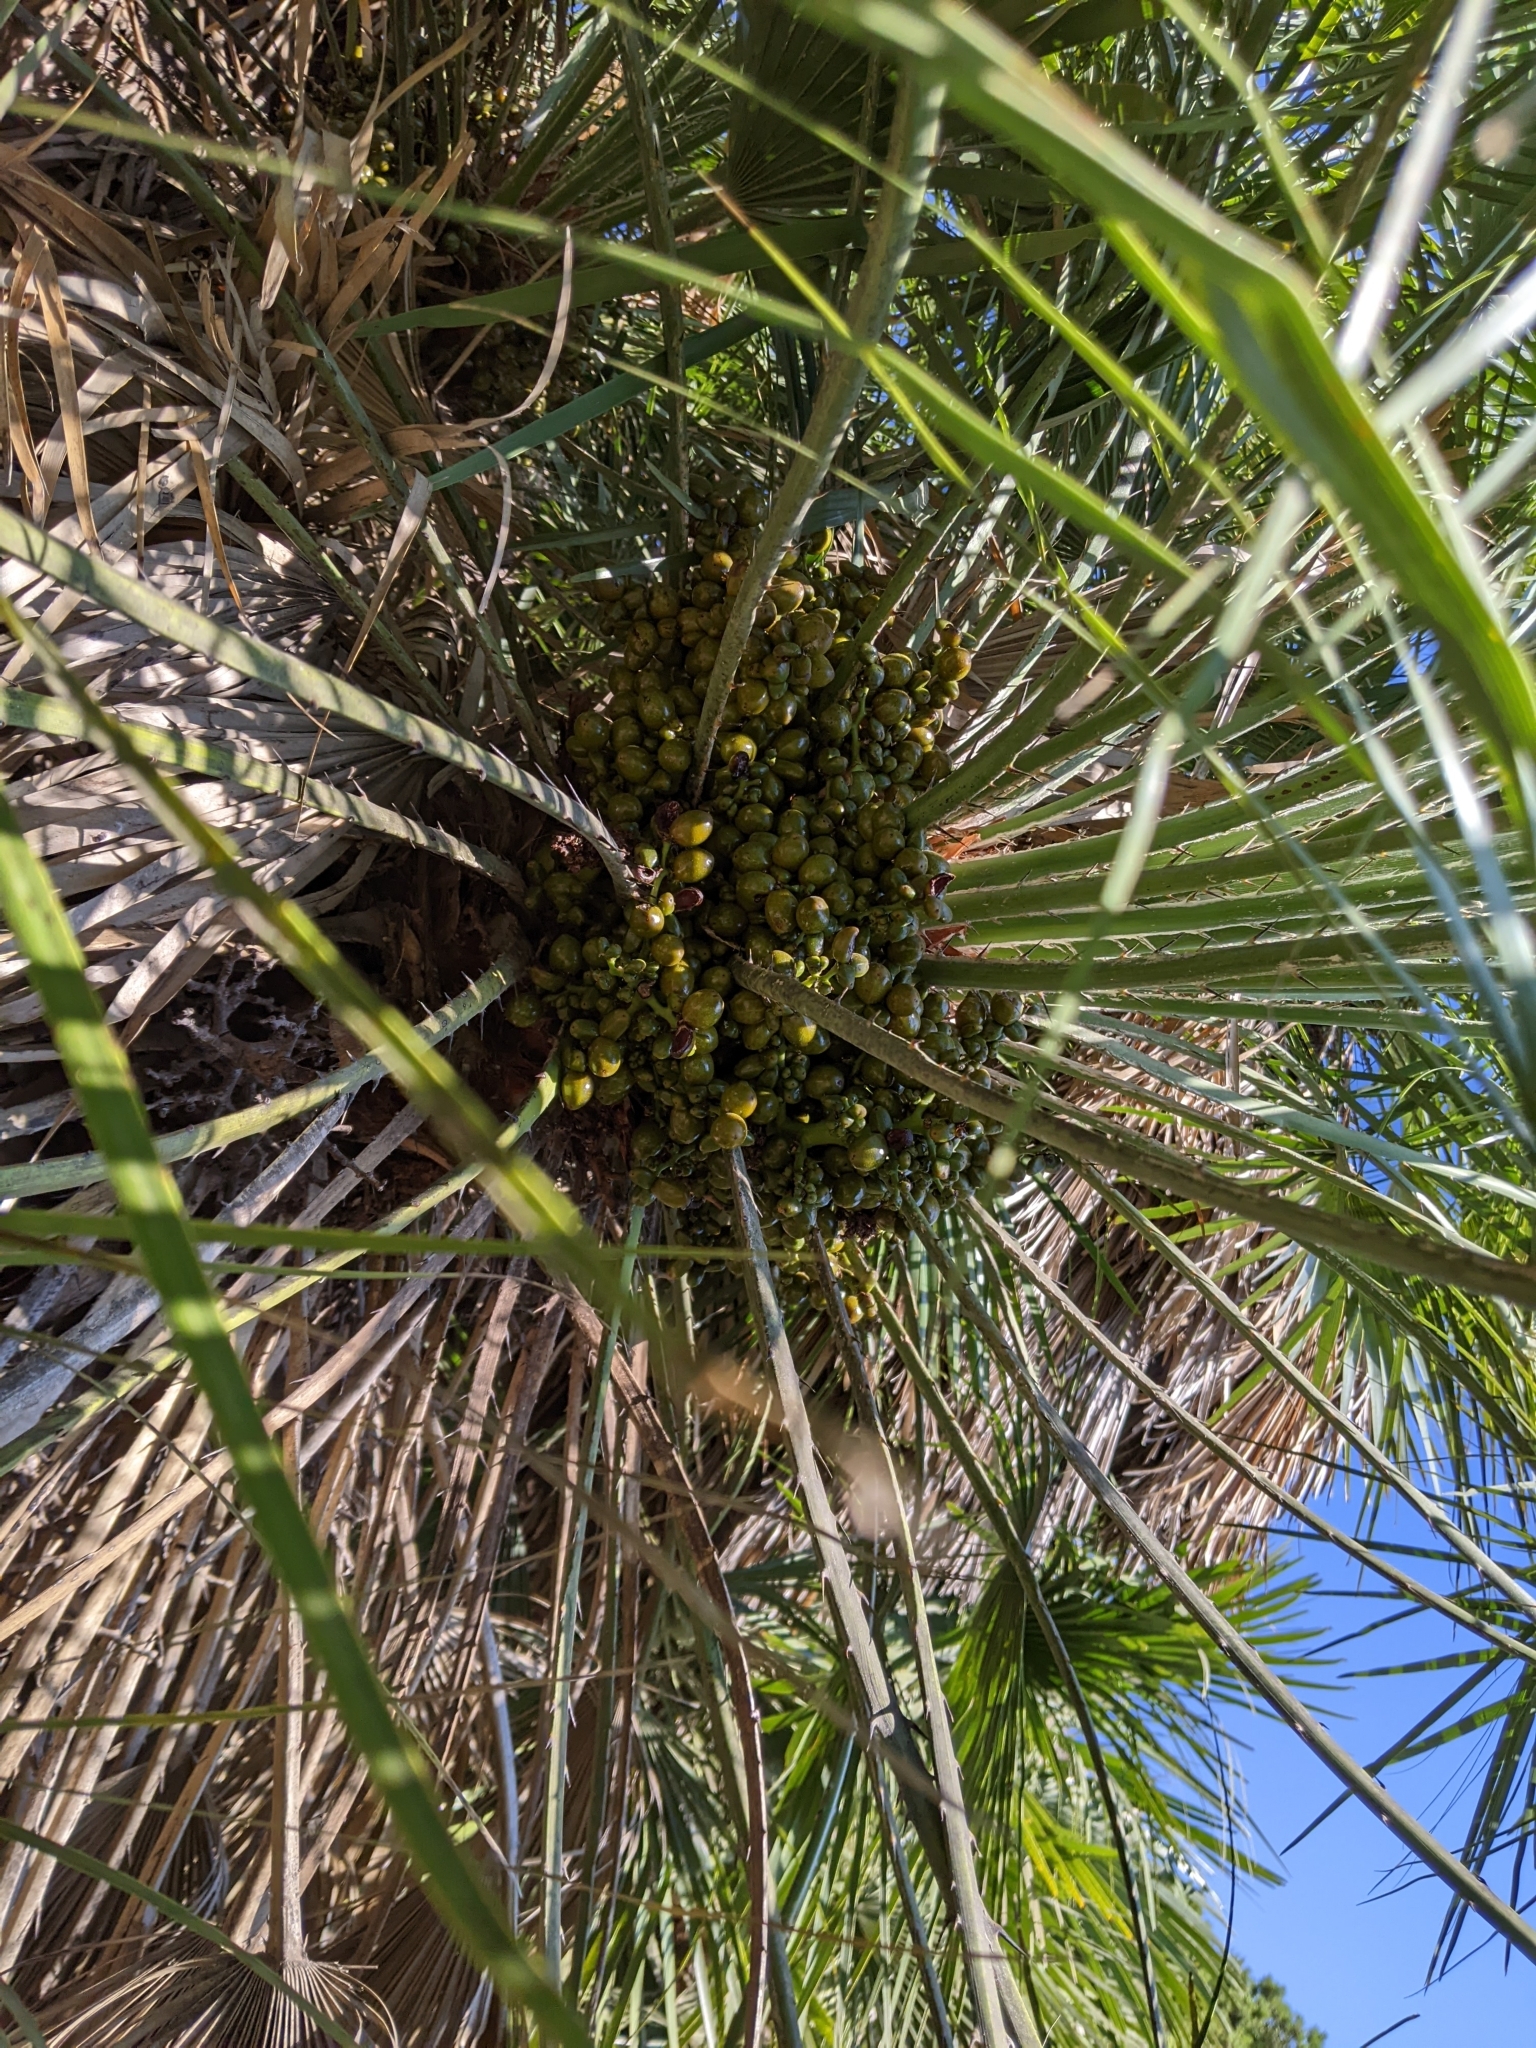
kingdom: Plantae
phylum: Tracheophyta
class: Liliopsida
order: Arecales
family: Arecaceae
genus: Chamaerops
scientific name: Chamaerops humilis
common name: Dwarf fan palm
